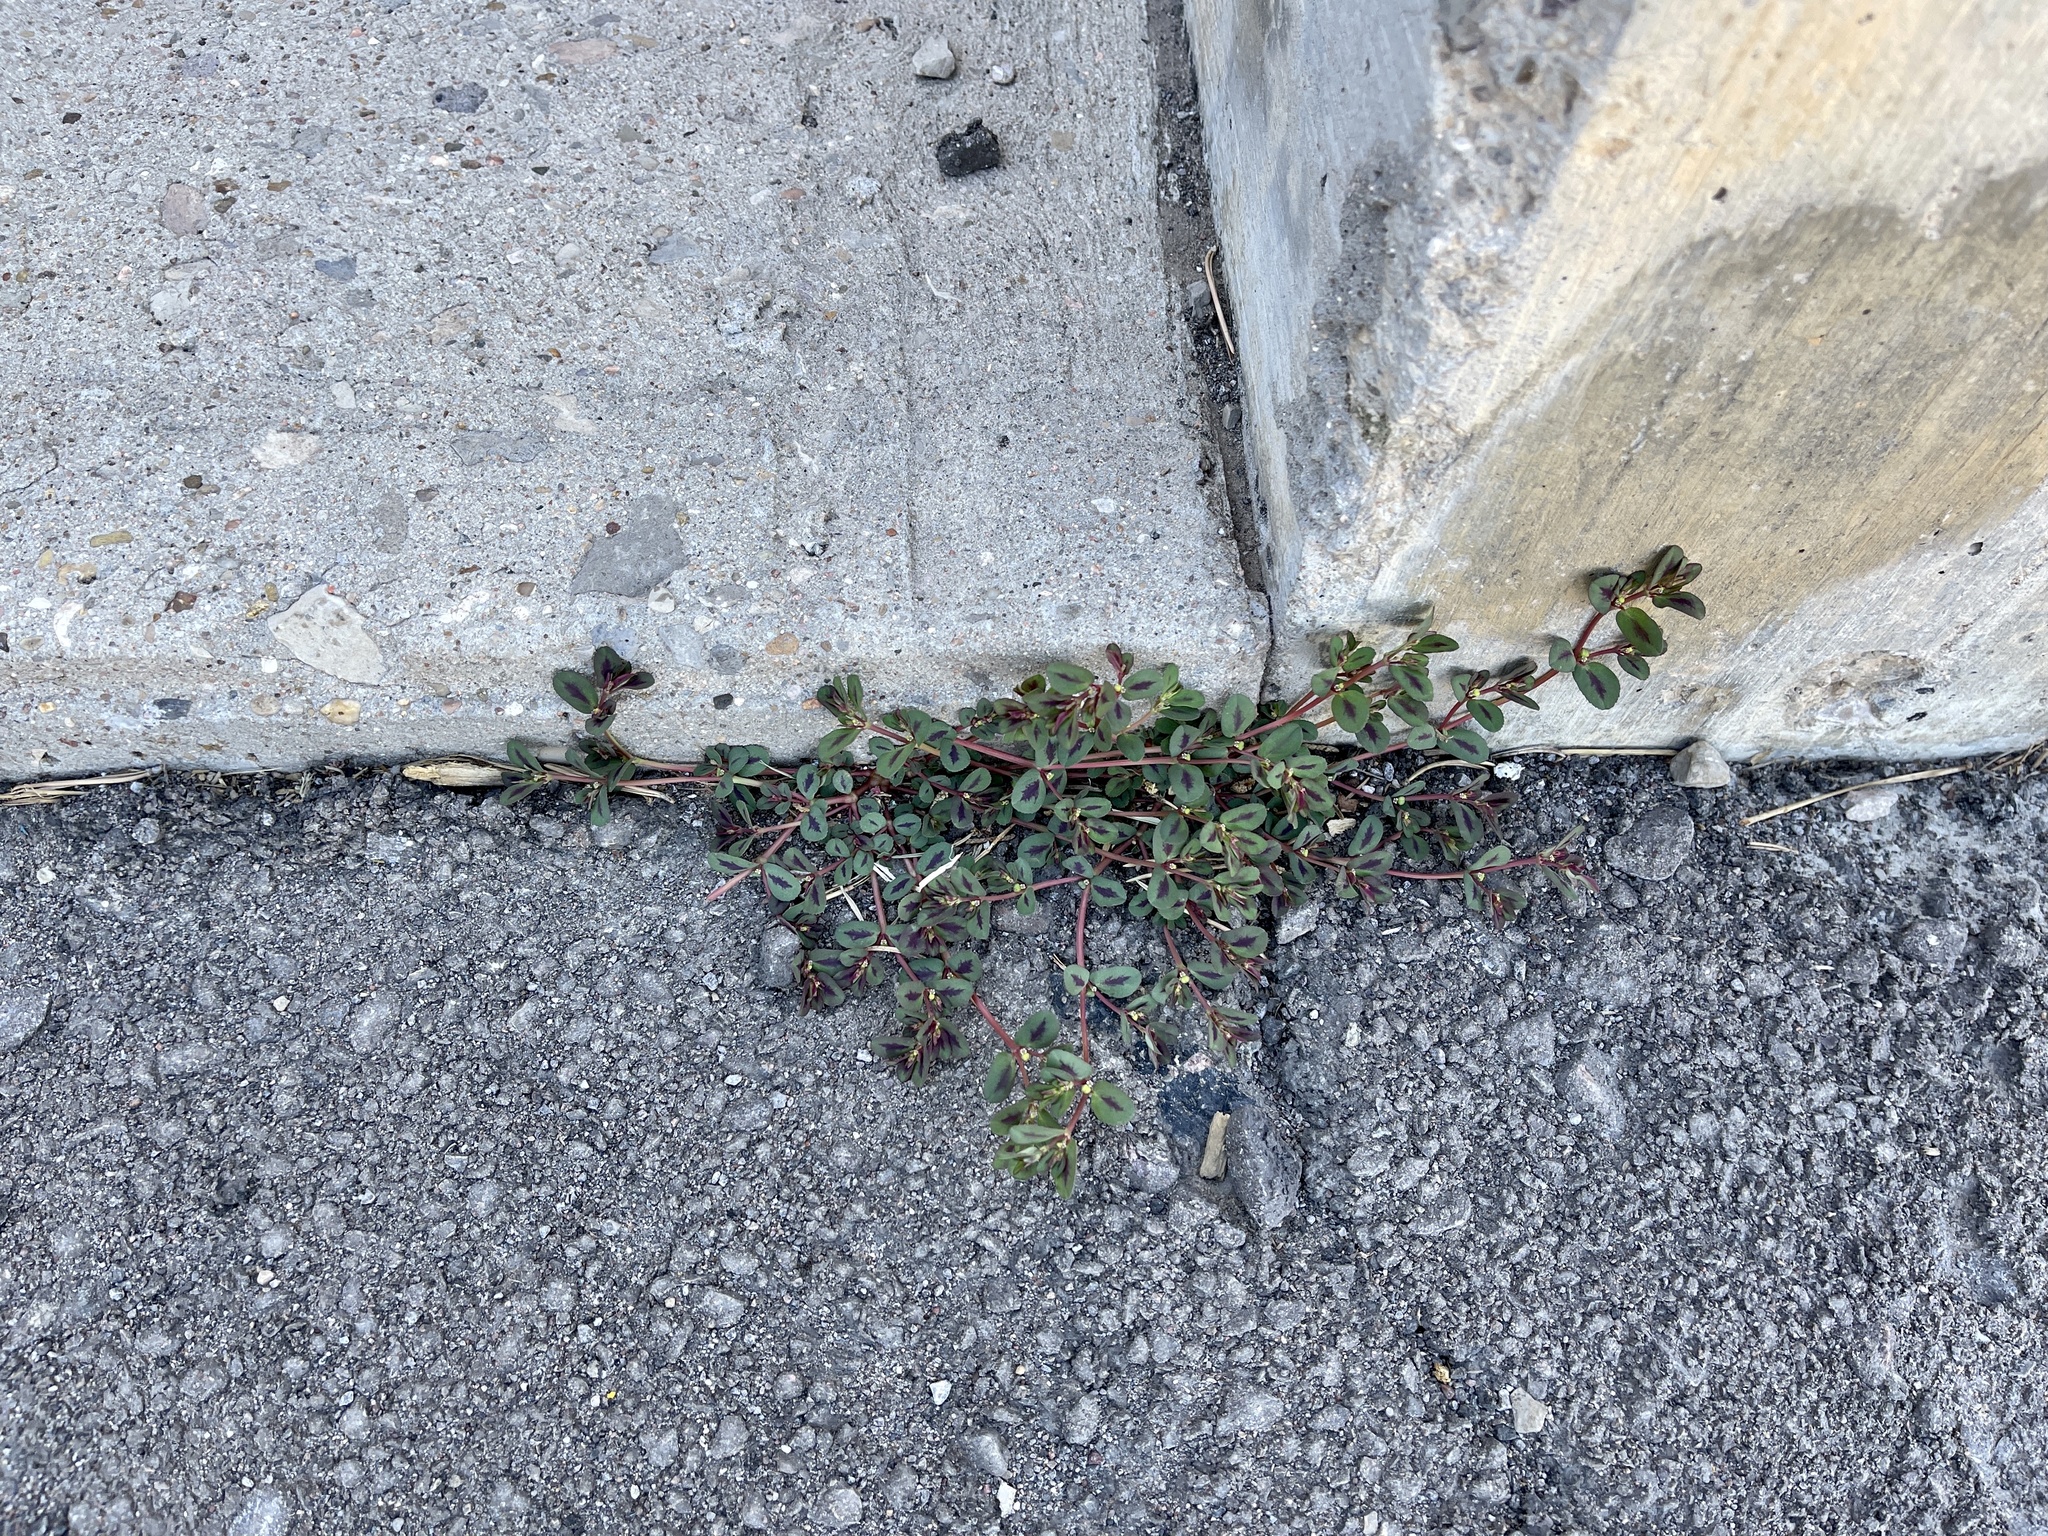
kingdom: Plantae
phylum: Tracheophyta
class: Magnoliopsida
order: Malpighiales
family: Euphorbiaceae
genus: Euphorbia
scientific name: Euphorbia serpillifolia
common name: Thyme-leaf spurge
